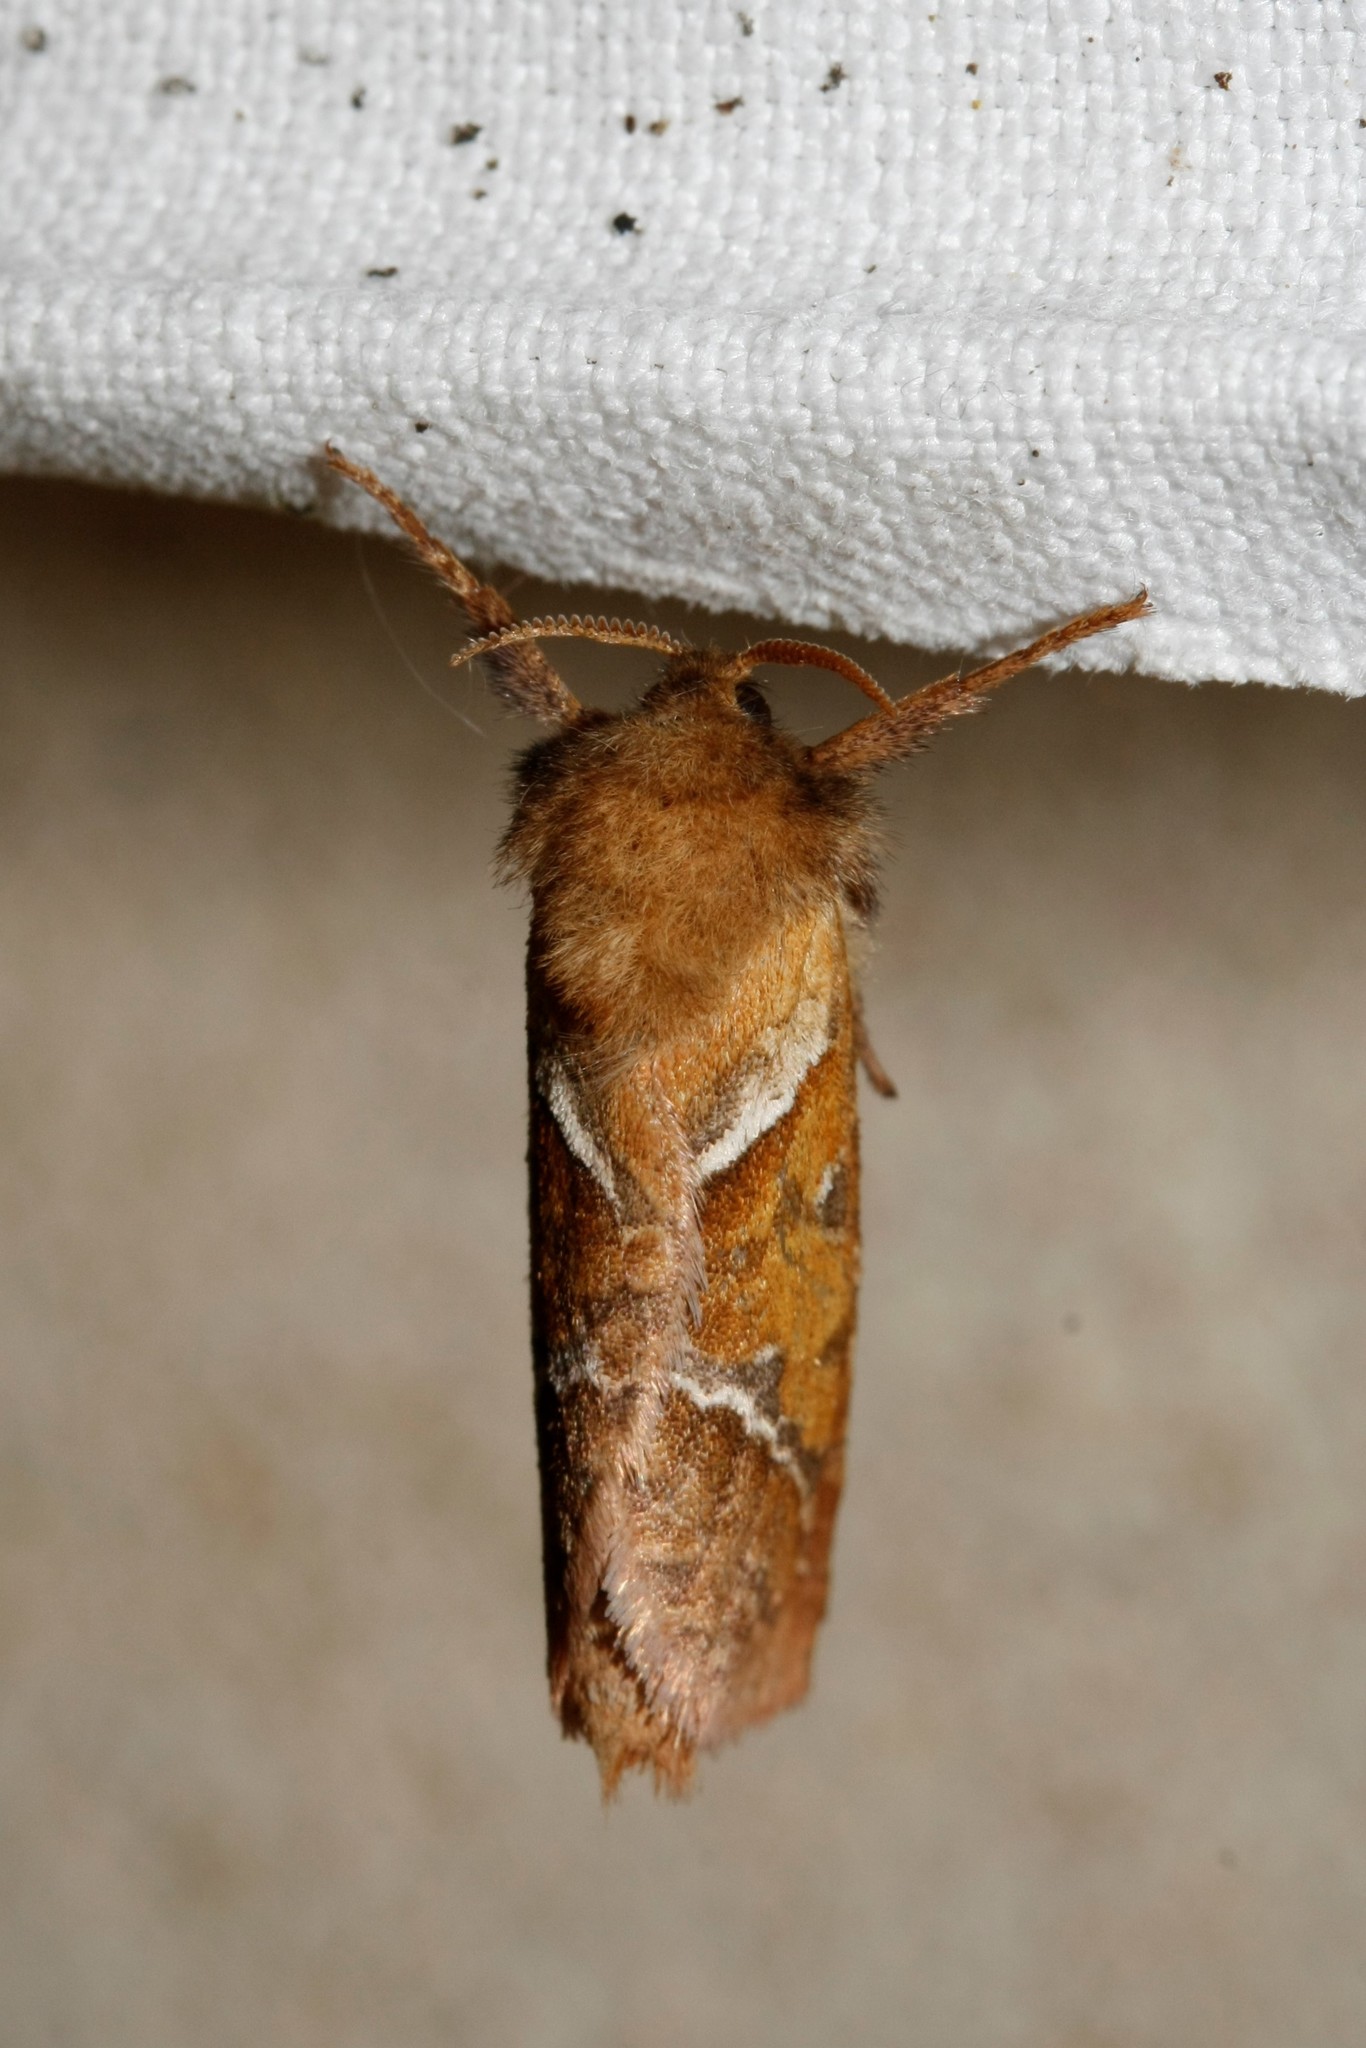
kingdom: Animalia
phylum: Arthropoda
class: Insecta
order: Lepidoptera
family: Hepialidae
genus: Triodia
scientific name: Triodia sylvina
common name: Orange swift
